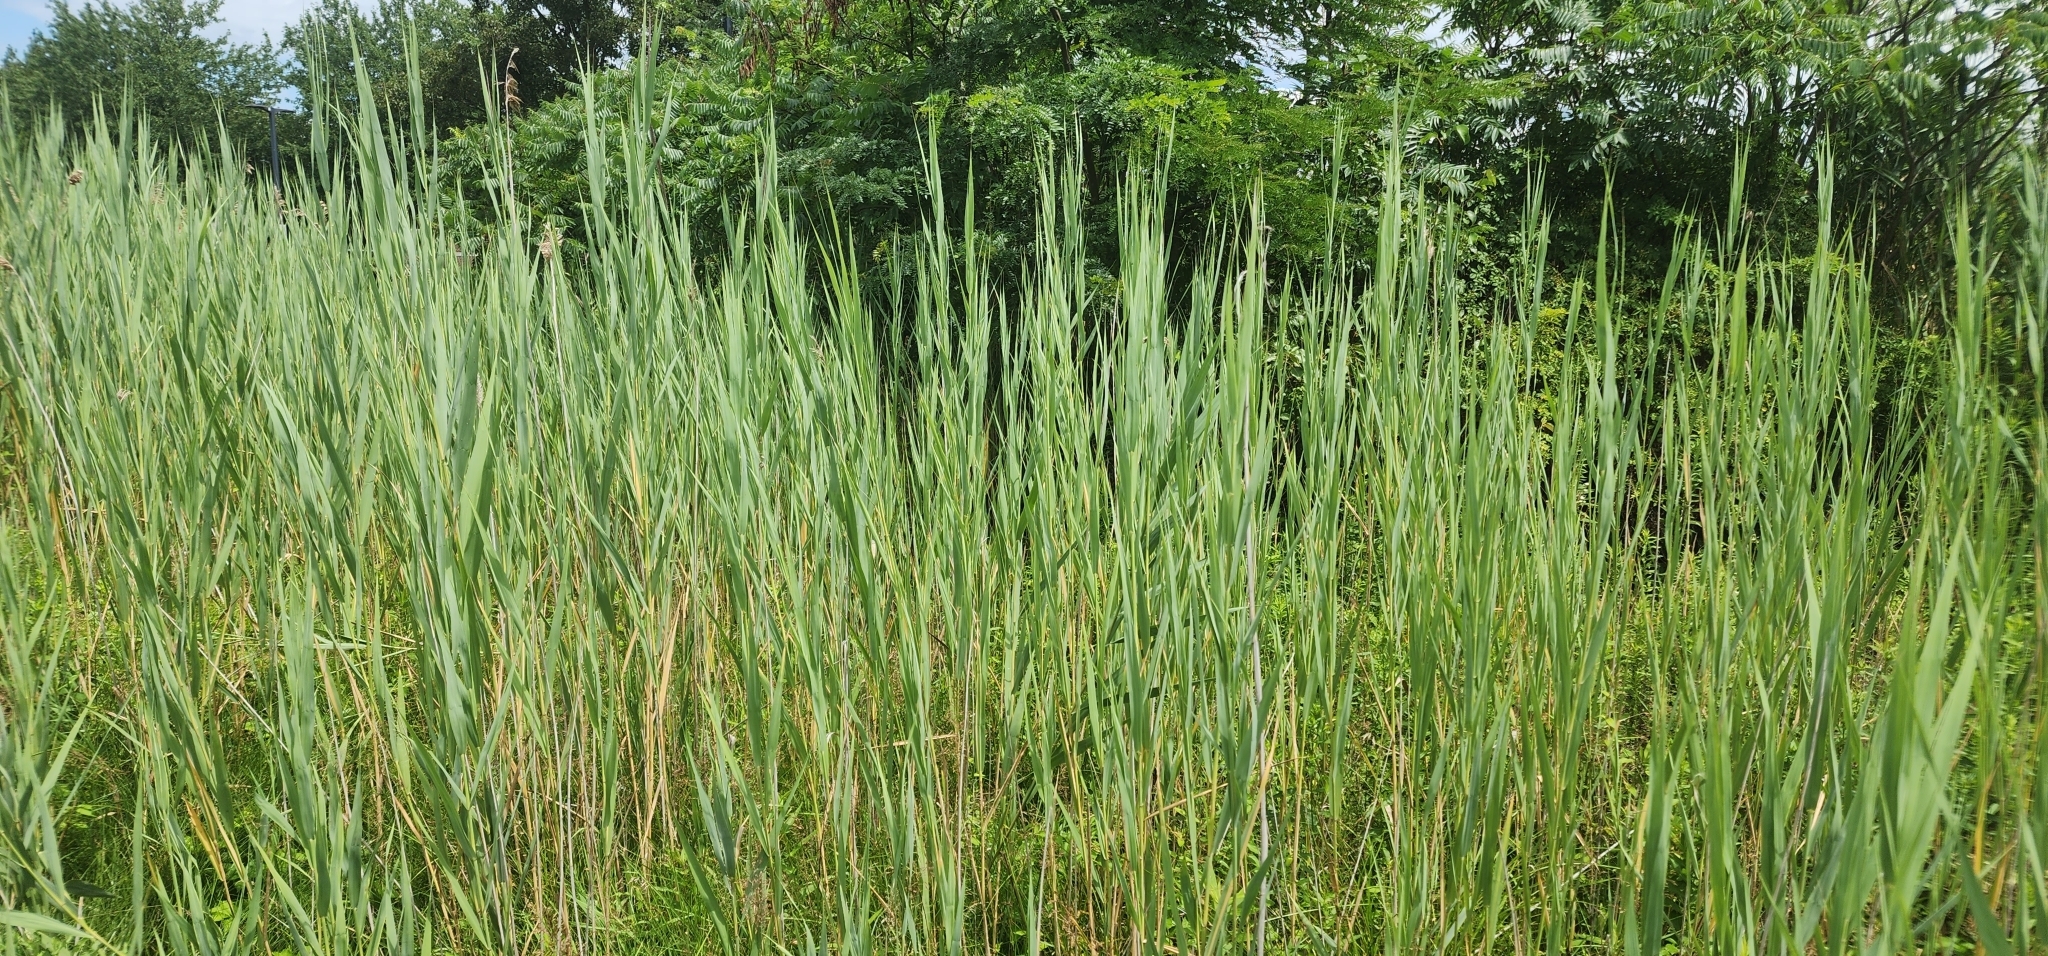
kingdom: Plantae
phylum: Tracheophyta
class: Liliopsida
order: Poales
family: Poaceae
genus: Phragmites
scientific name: Phragmites australis
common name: Common reed
